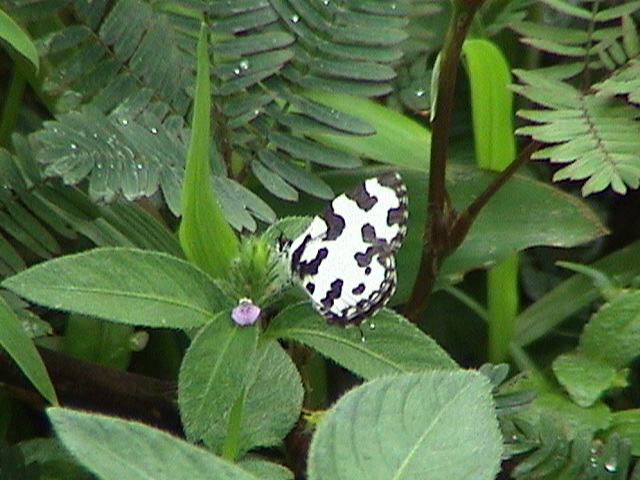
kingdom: Animalia
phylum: Arthropoda
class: Insecta
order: Lepidoptera
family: Lycaenidae
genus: Caleta
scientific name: Caleta decidia
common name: Angled pierrot
